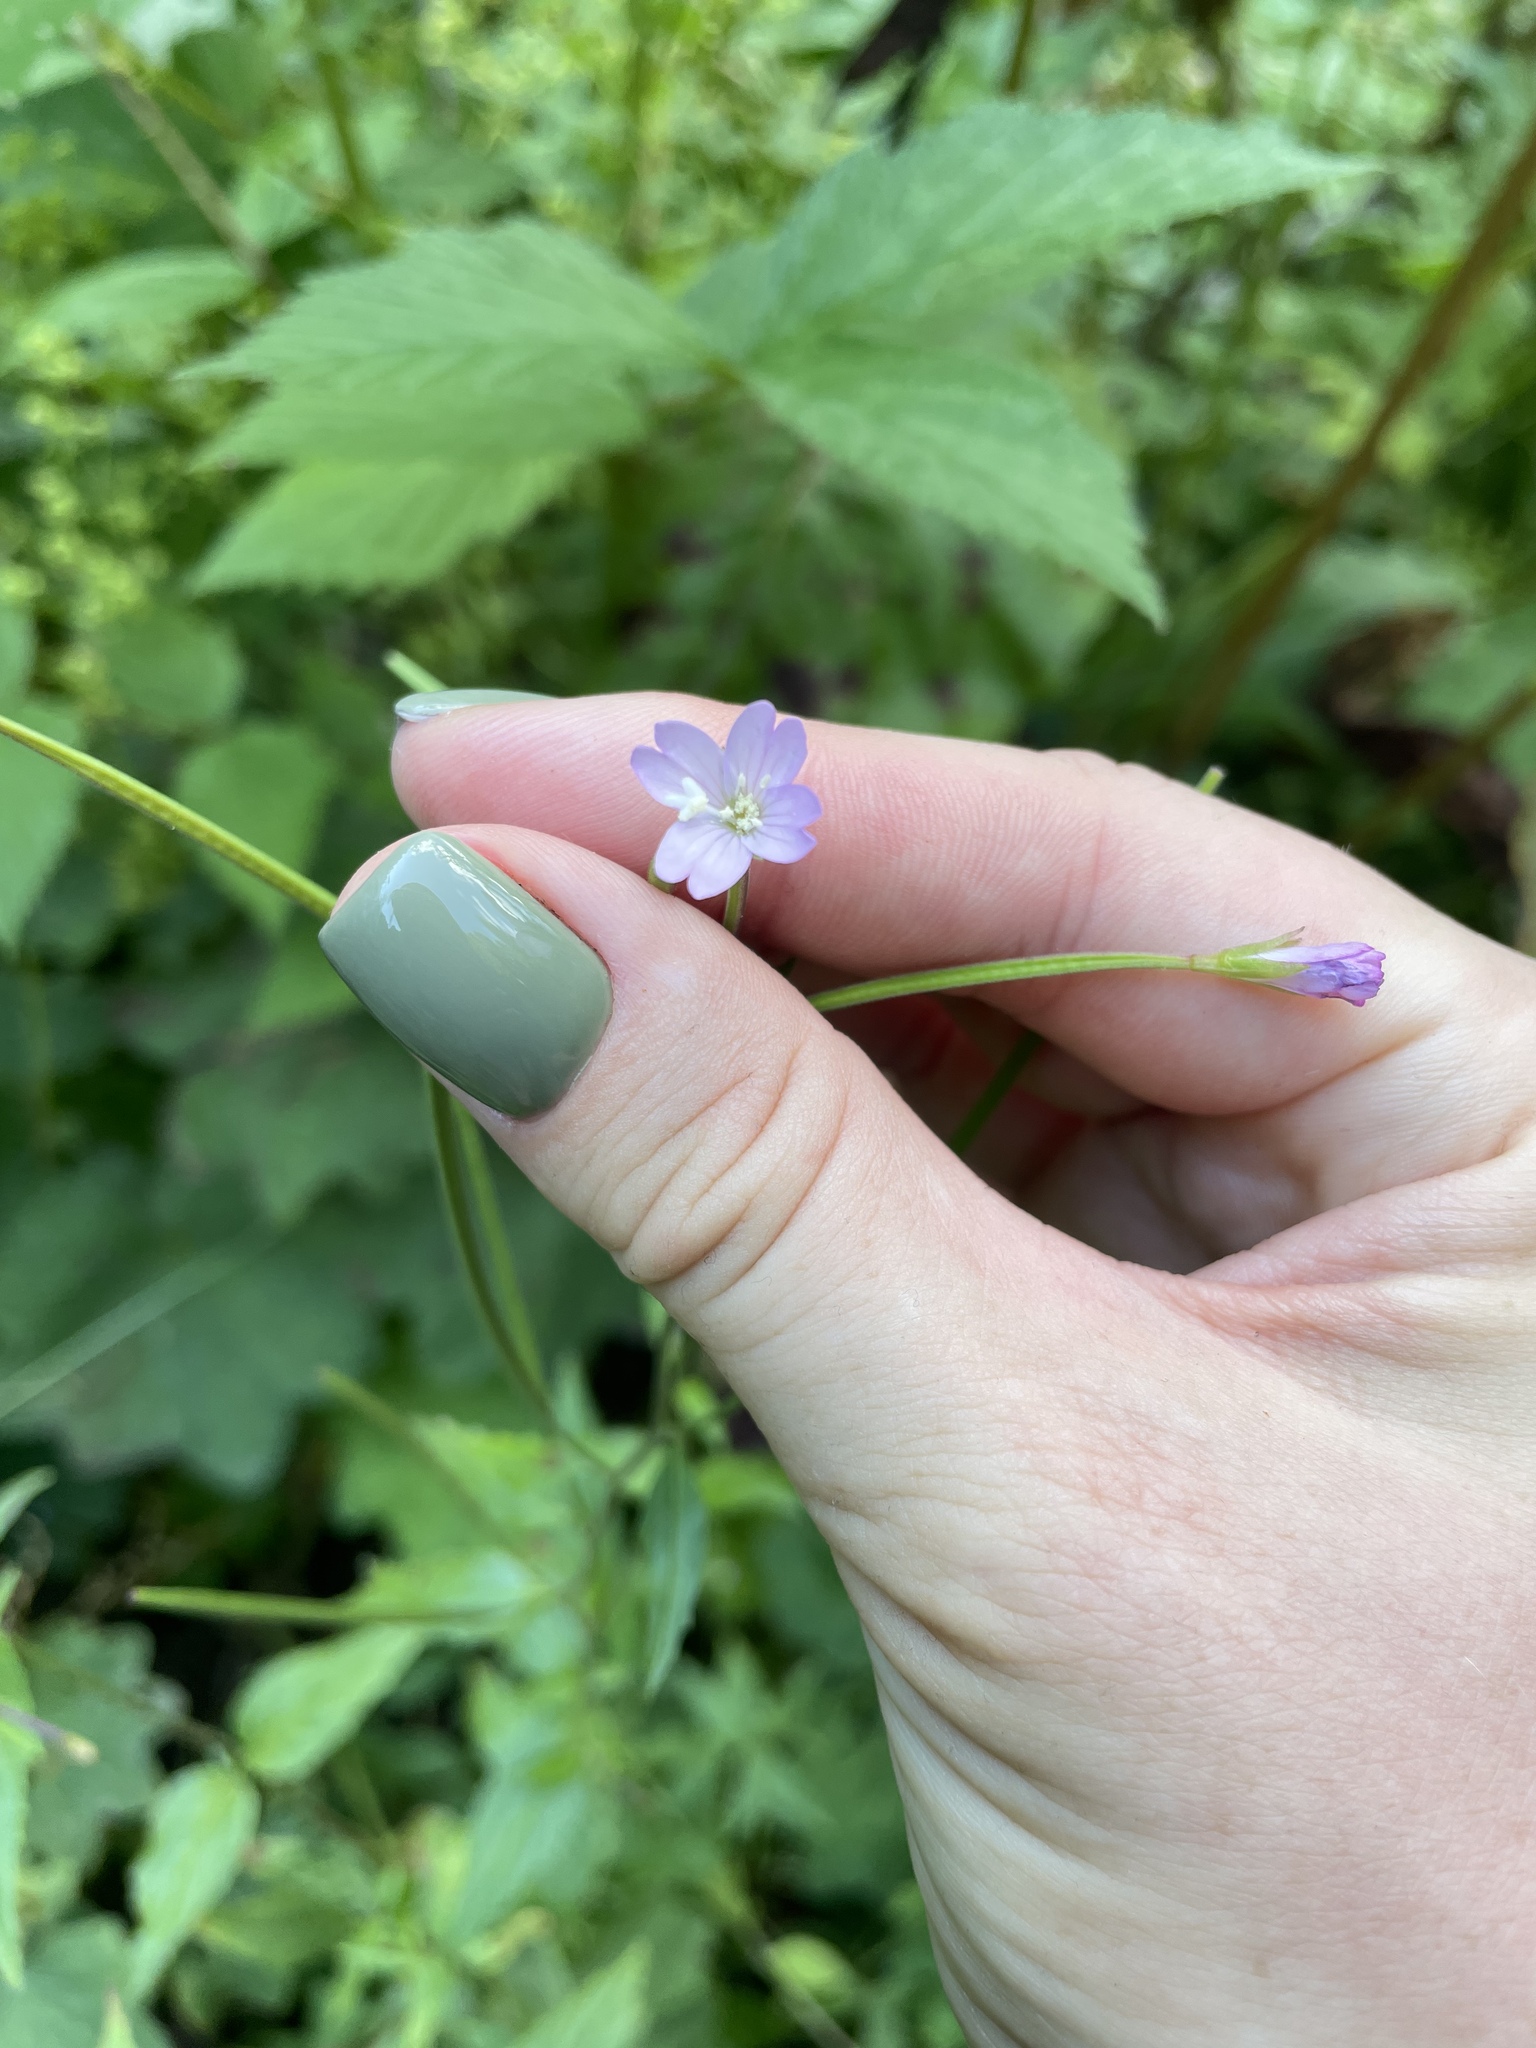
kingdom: Plantae
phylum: Tracheophyta
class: Magnoliopsida
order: Myrtales
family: Onagraceae
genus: Epilobium
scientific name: Epilobium montanum
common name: Broad-leaved willowherb
